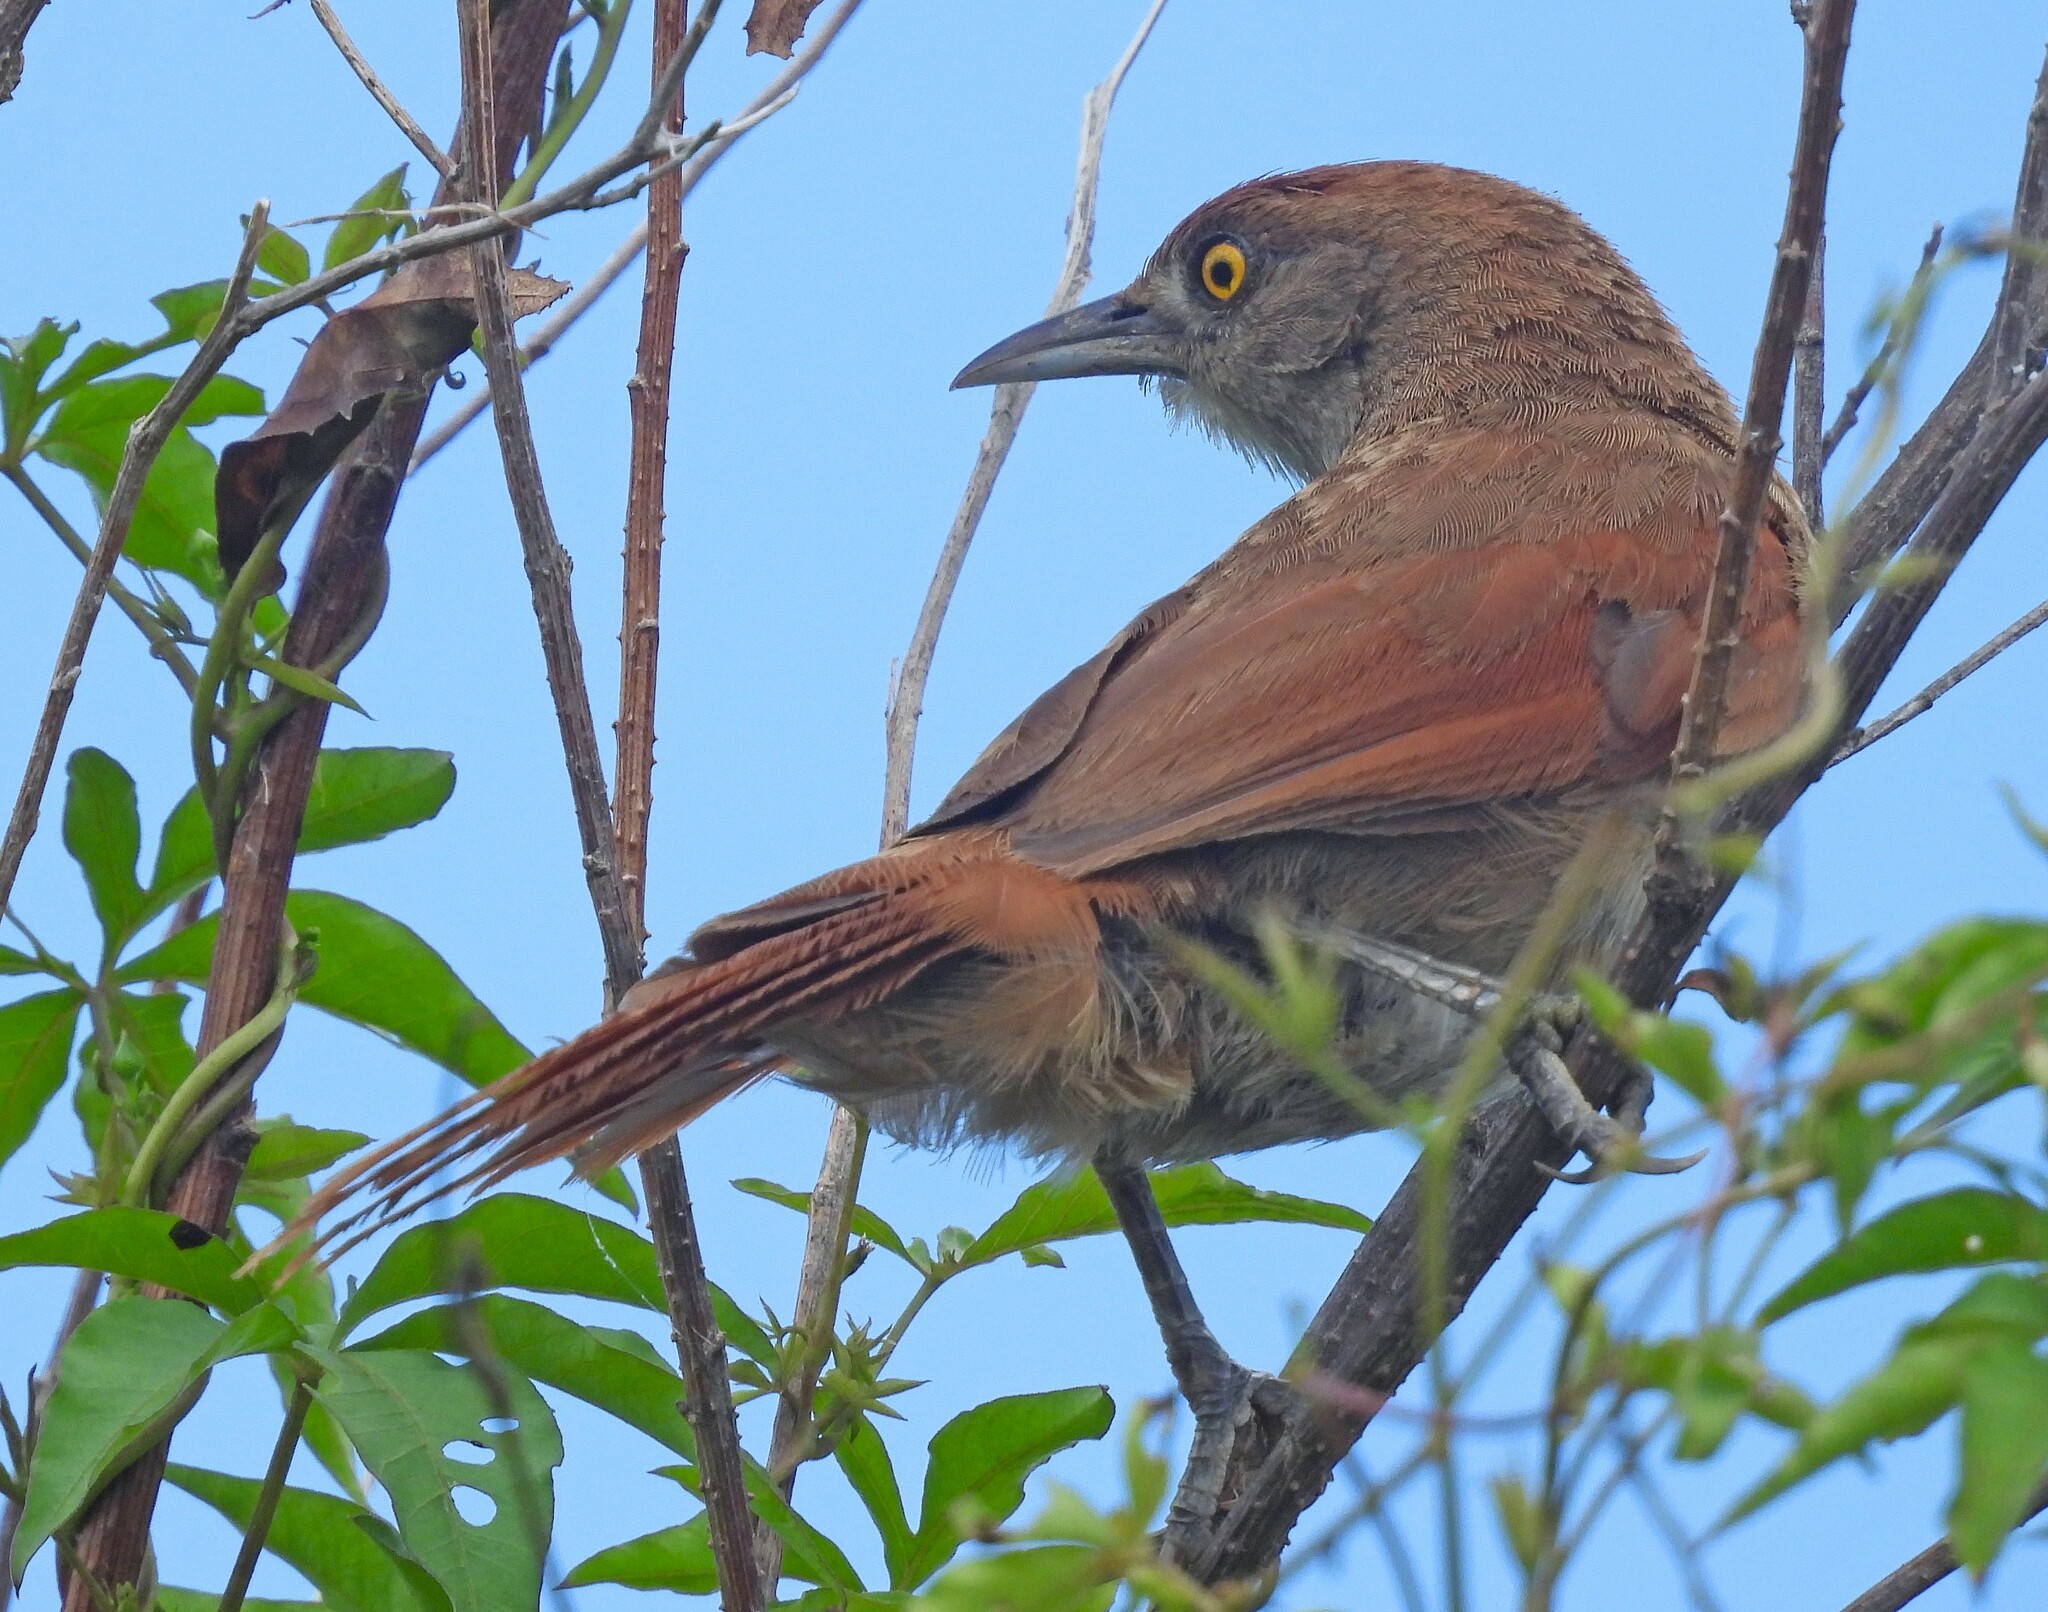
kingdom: Animalia
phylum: Chordata
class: Aves
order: Passeriformes
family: Furnariidae
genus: Phacellodomus
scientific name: Phacellodomus ruber
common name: Greater thornbird
